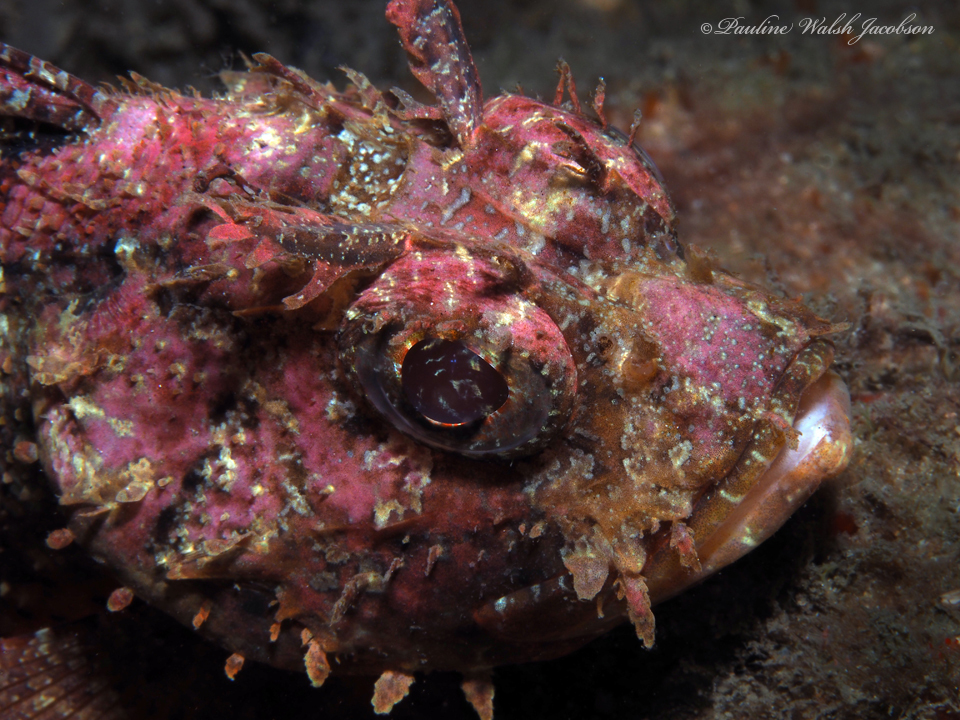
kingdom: Animalia
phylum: Chordata
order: Scorpaeniformes
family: Scorpaenidae
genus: Scorpaena
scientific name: Scorpaena brasiliensis
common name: Barbfish
